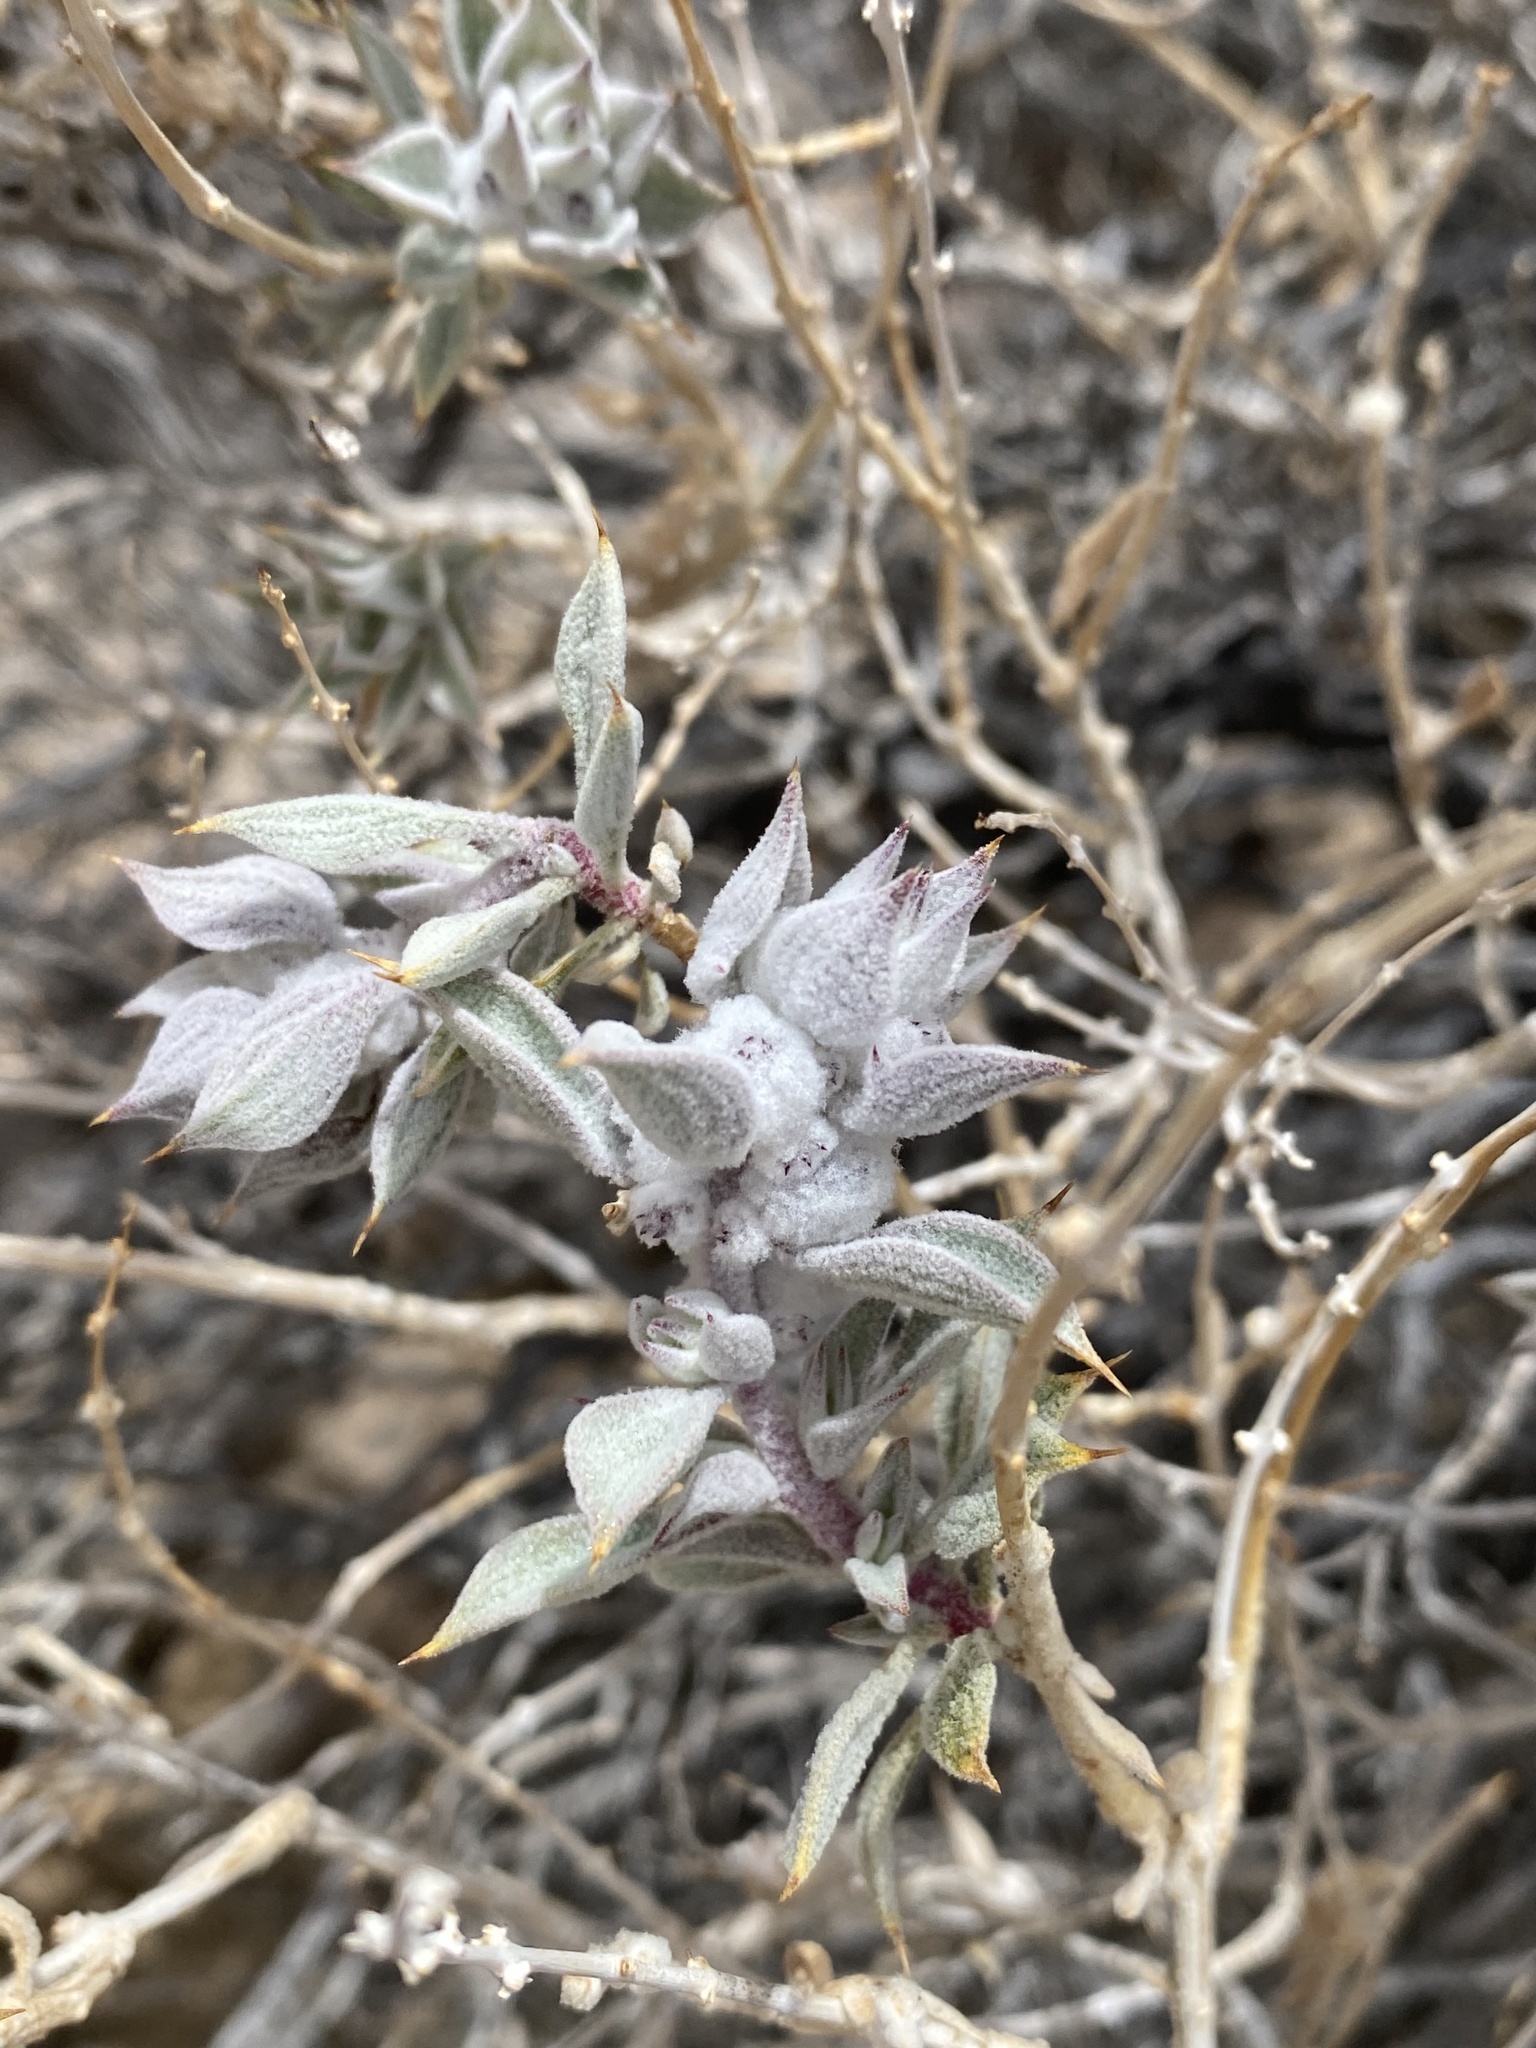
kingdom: Plantae
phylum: Tracheophyta
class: Magnoliopsida
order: Lamiales
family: Lamiaceae
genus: Salvia
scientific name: Salvia funerea
